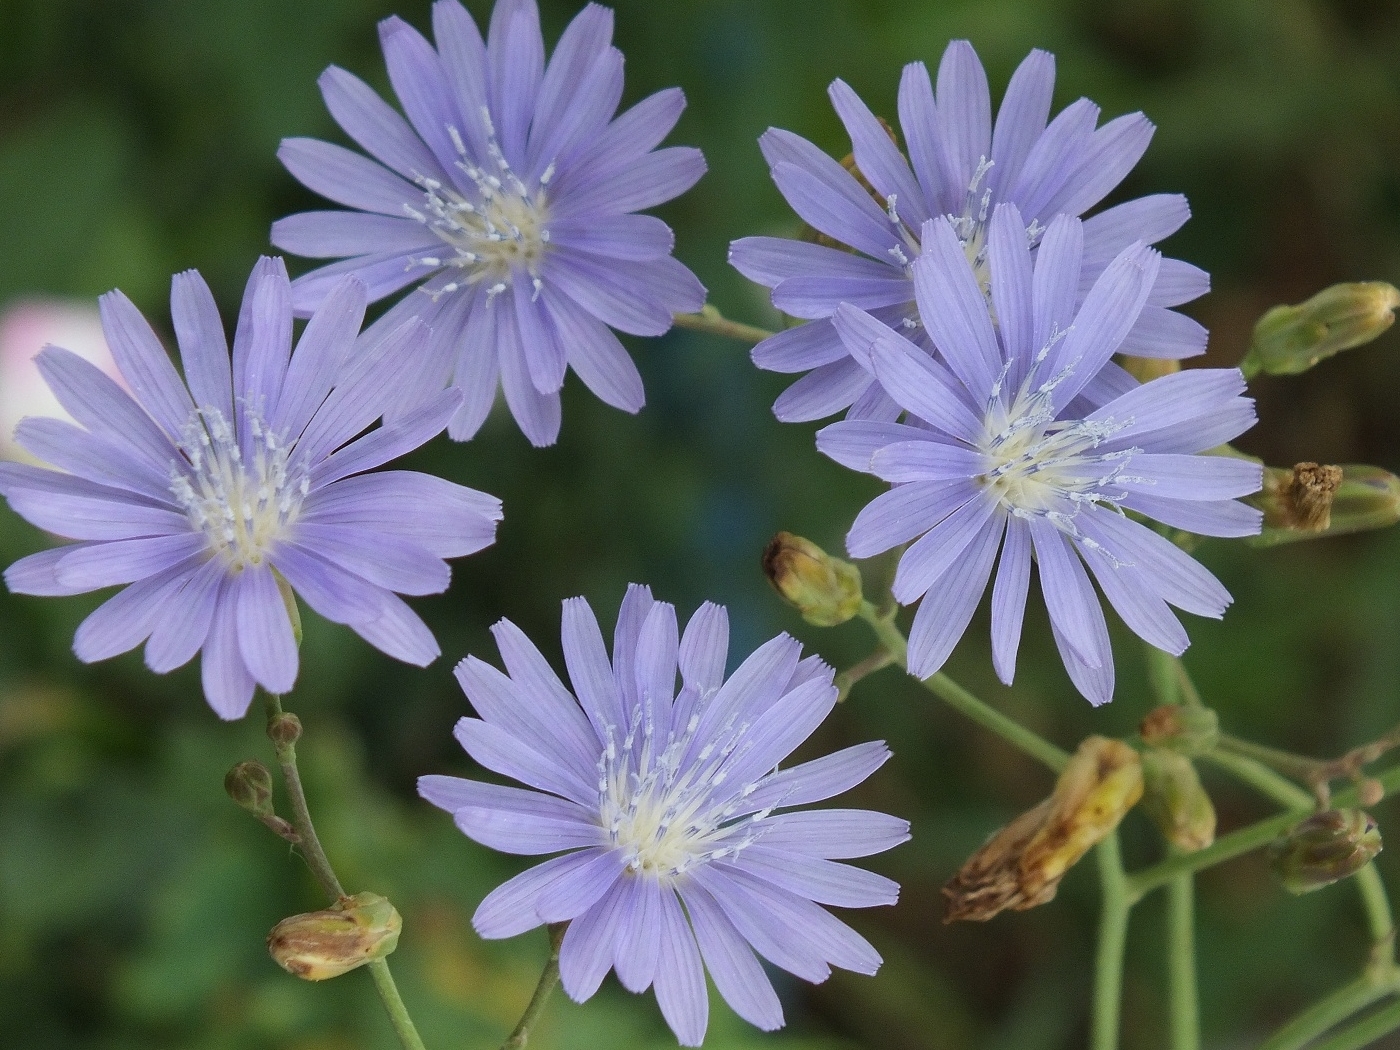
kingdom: Plantae
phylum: Tracheophyta
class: Magnoliopsida
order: Asterales
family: Asteraceae
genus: Lactuca
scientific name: Lactuca tatarica
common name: Blue lettuce
